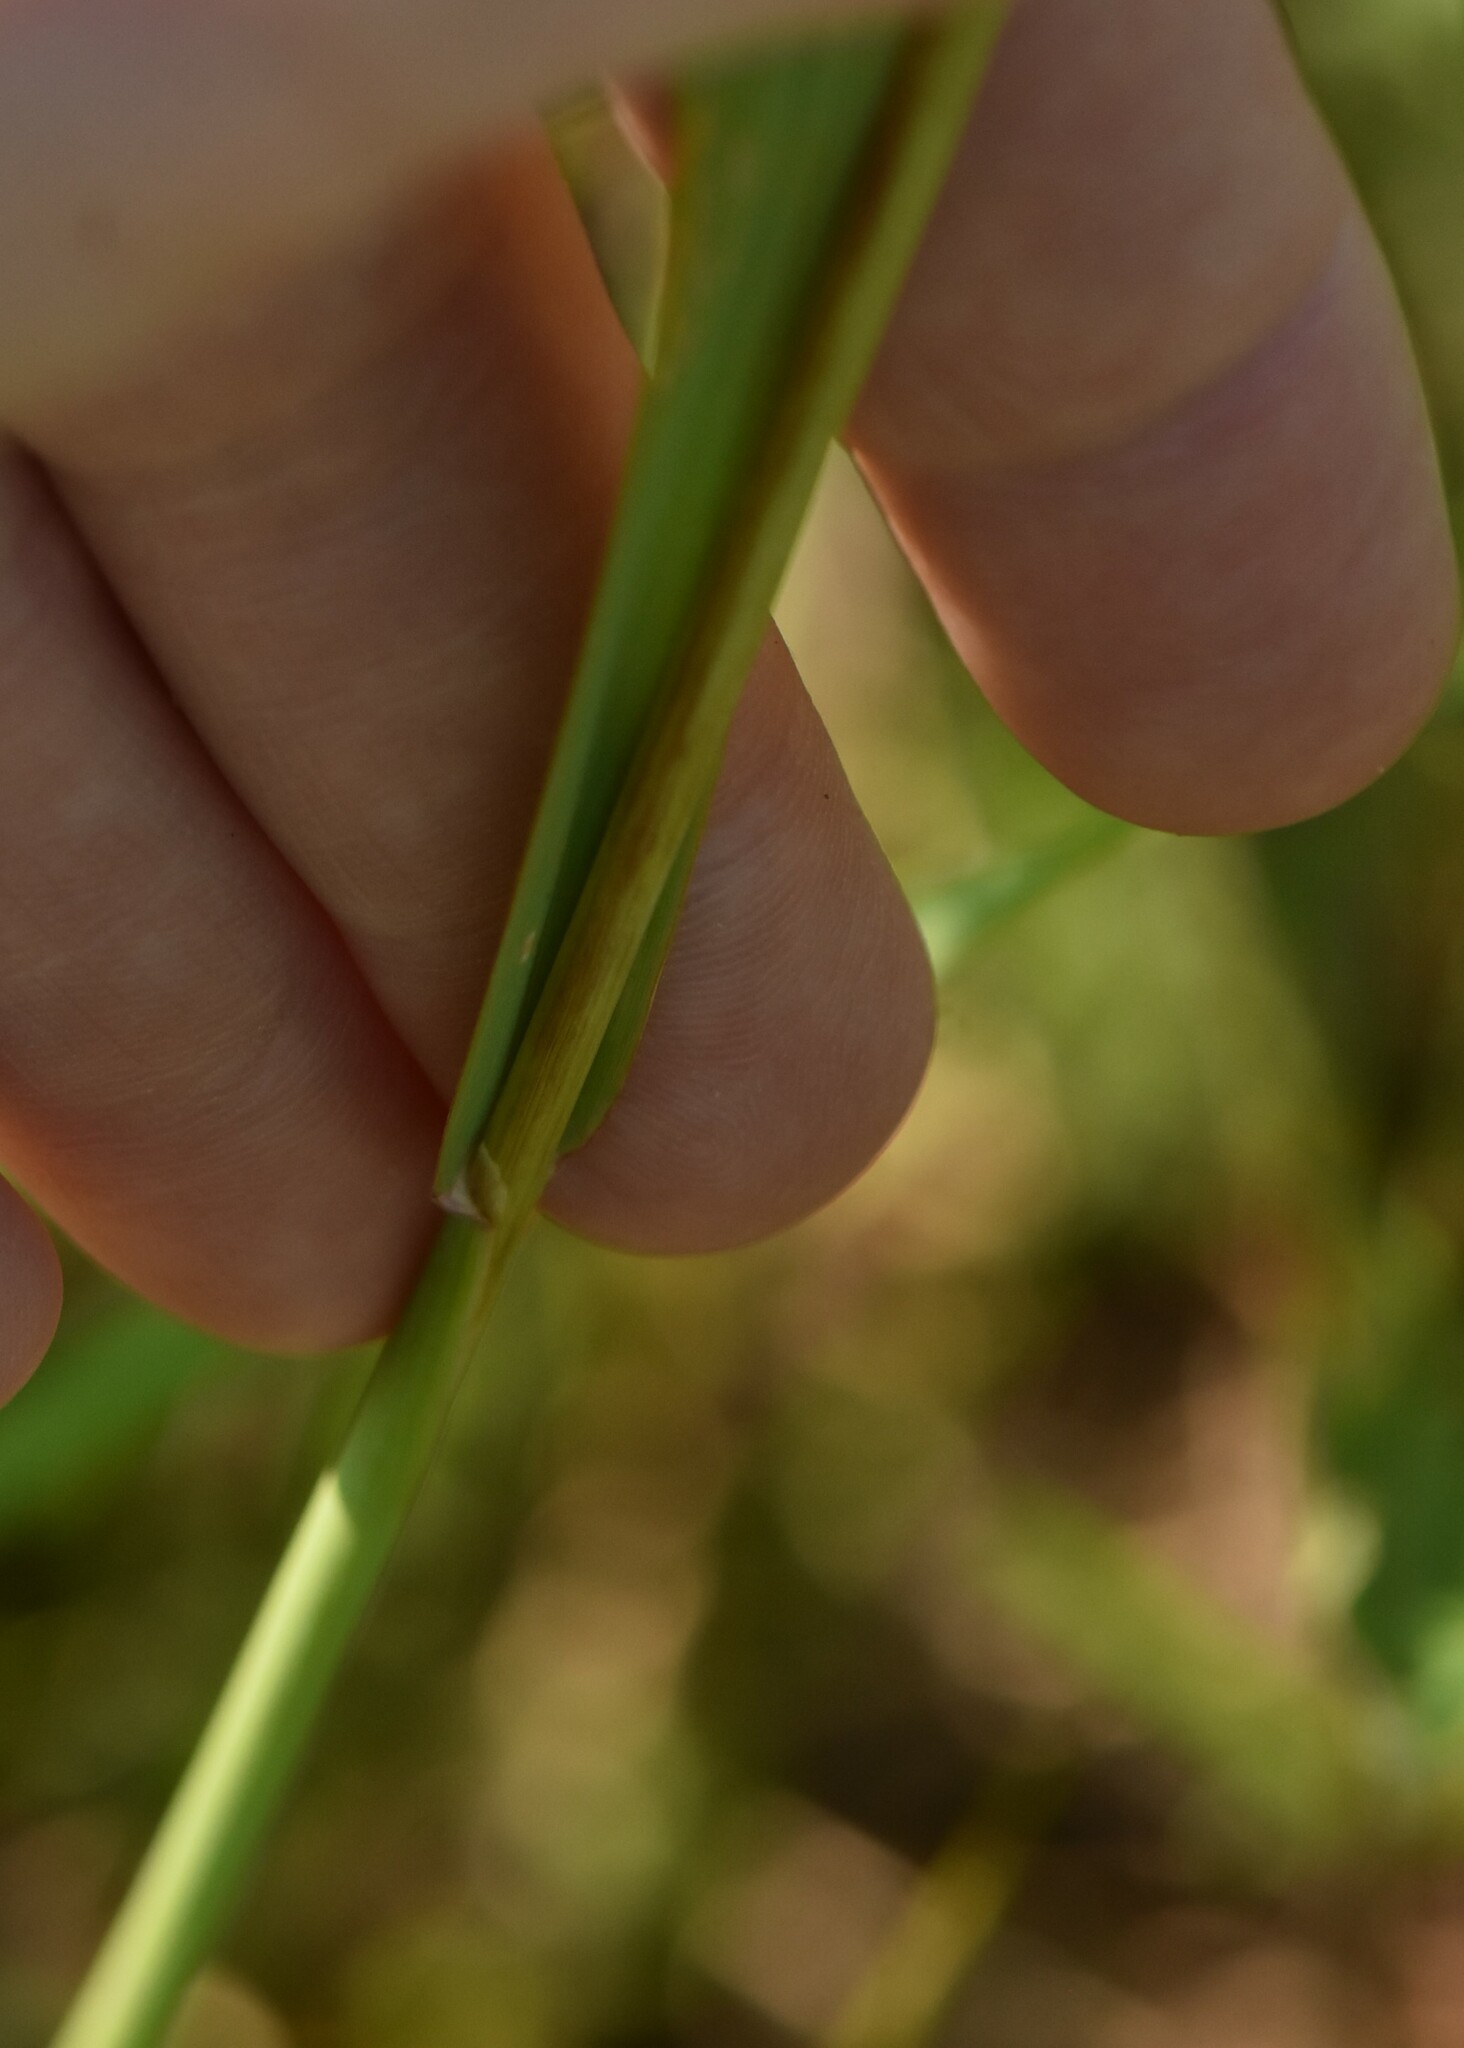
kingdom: Plantae
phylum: Tracheophyta
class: Liliopsida
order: Poales
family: Poaceae
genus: Phleum
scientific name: Phleum pratense
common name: Timothy grass
